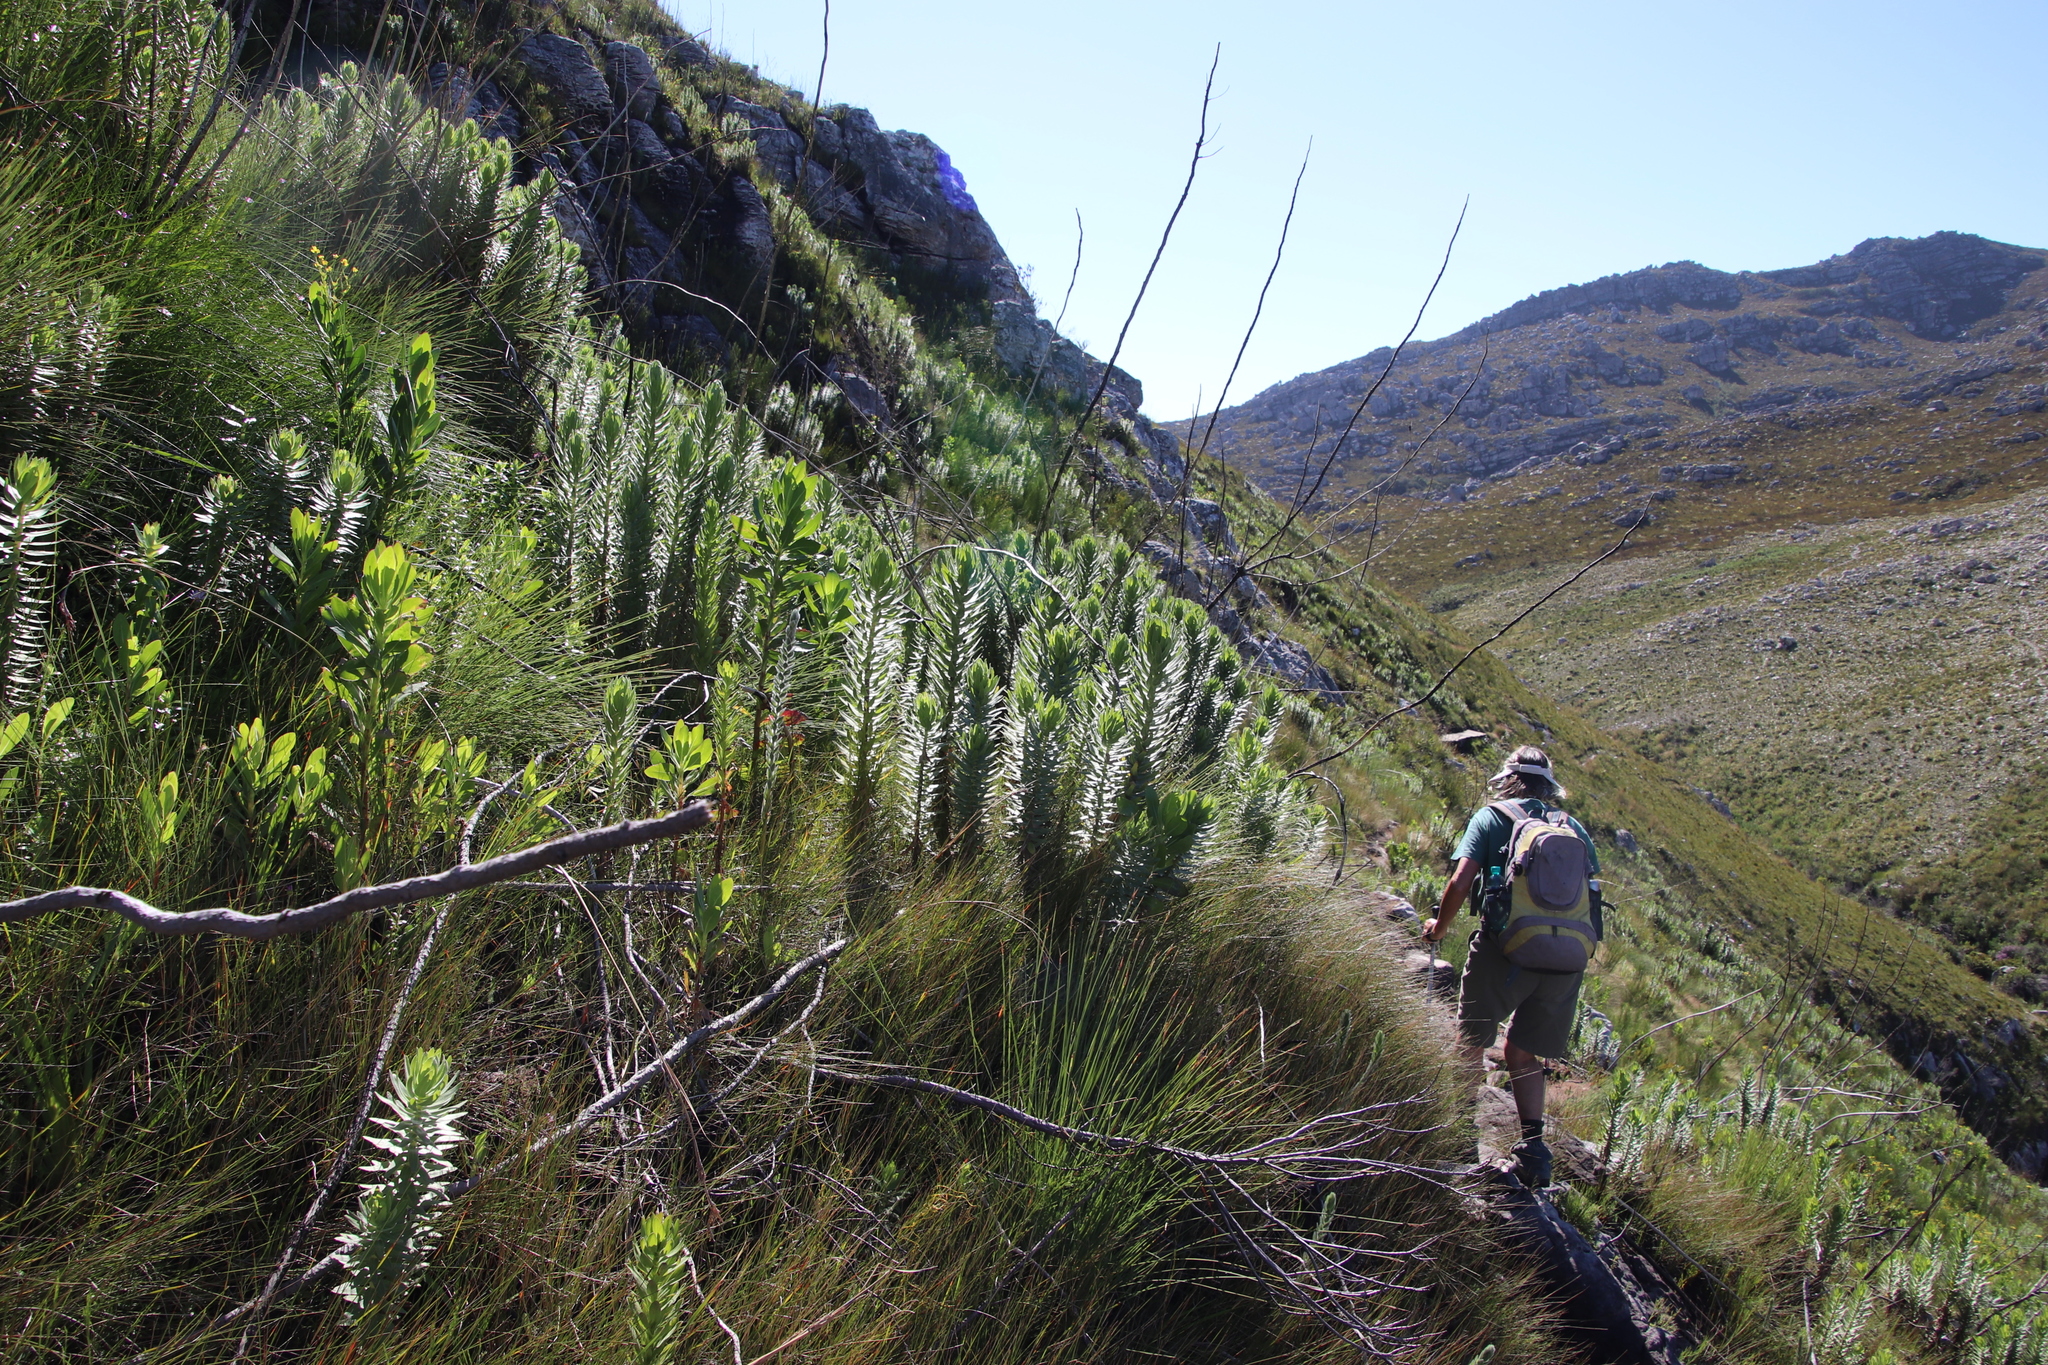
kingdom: Plantae
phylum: Tracheophyta
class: Magnoliopsida
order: Asterales
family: Asteraceae
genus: Osmitopsis
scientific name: Osmitopsis asteriscoides
